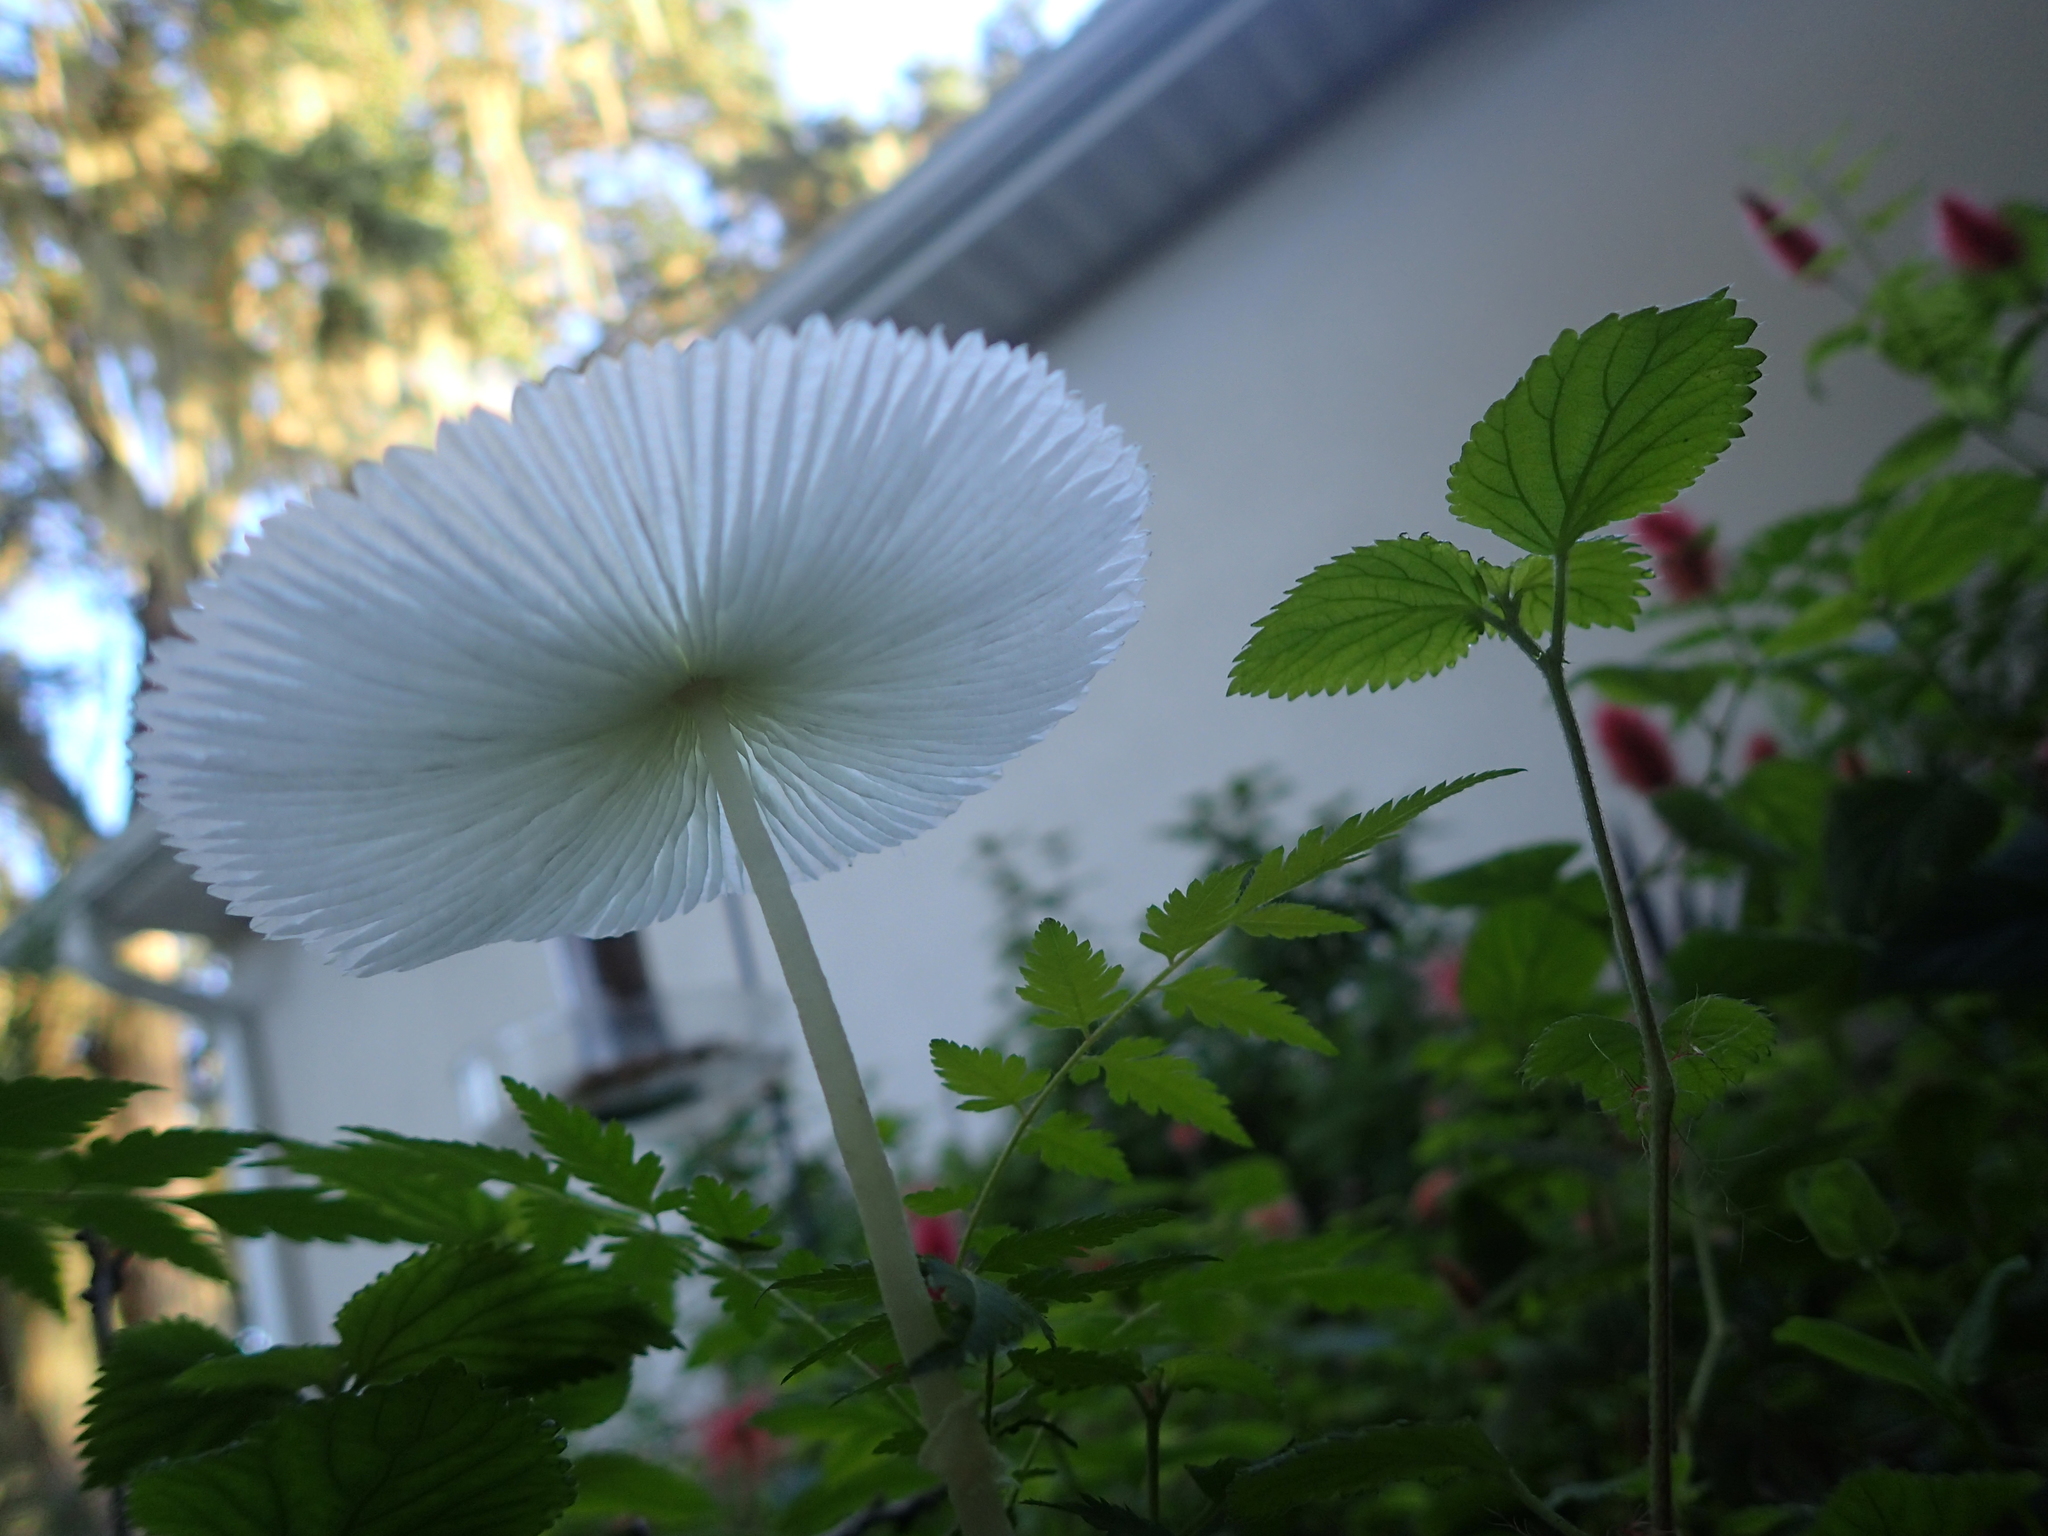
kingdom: Fungi
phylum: Basidiomycota
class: Agaricomycetes
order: Agaricales
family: Agaricaceae
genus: Leucocoprinus
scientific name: Leucocoprinus fragilissimus
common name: Fragile dapperling
